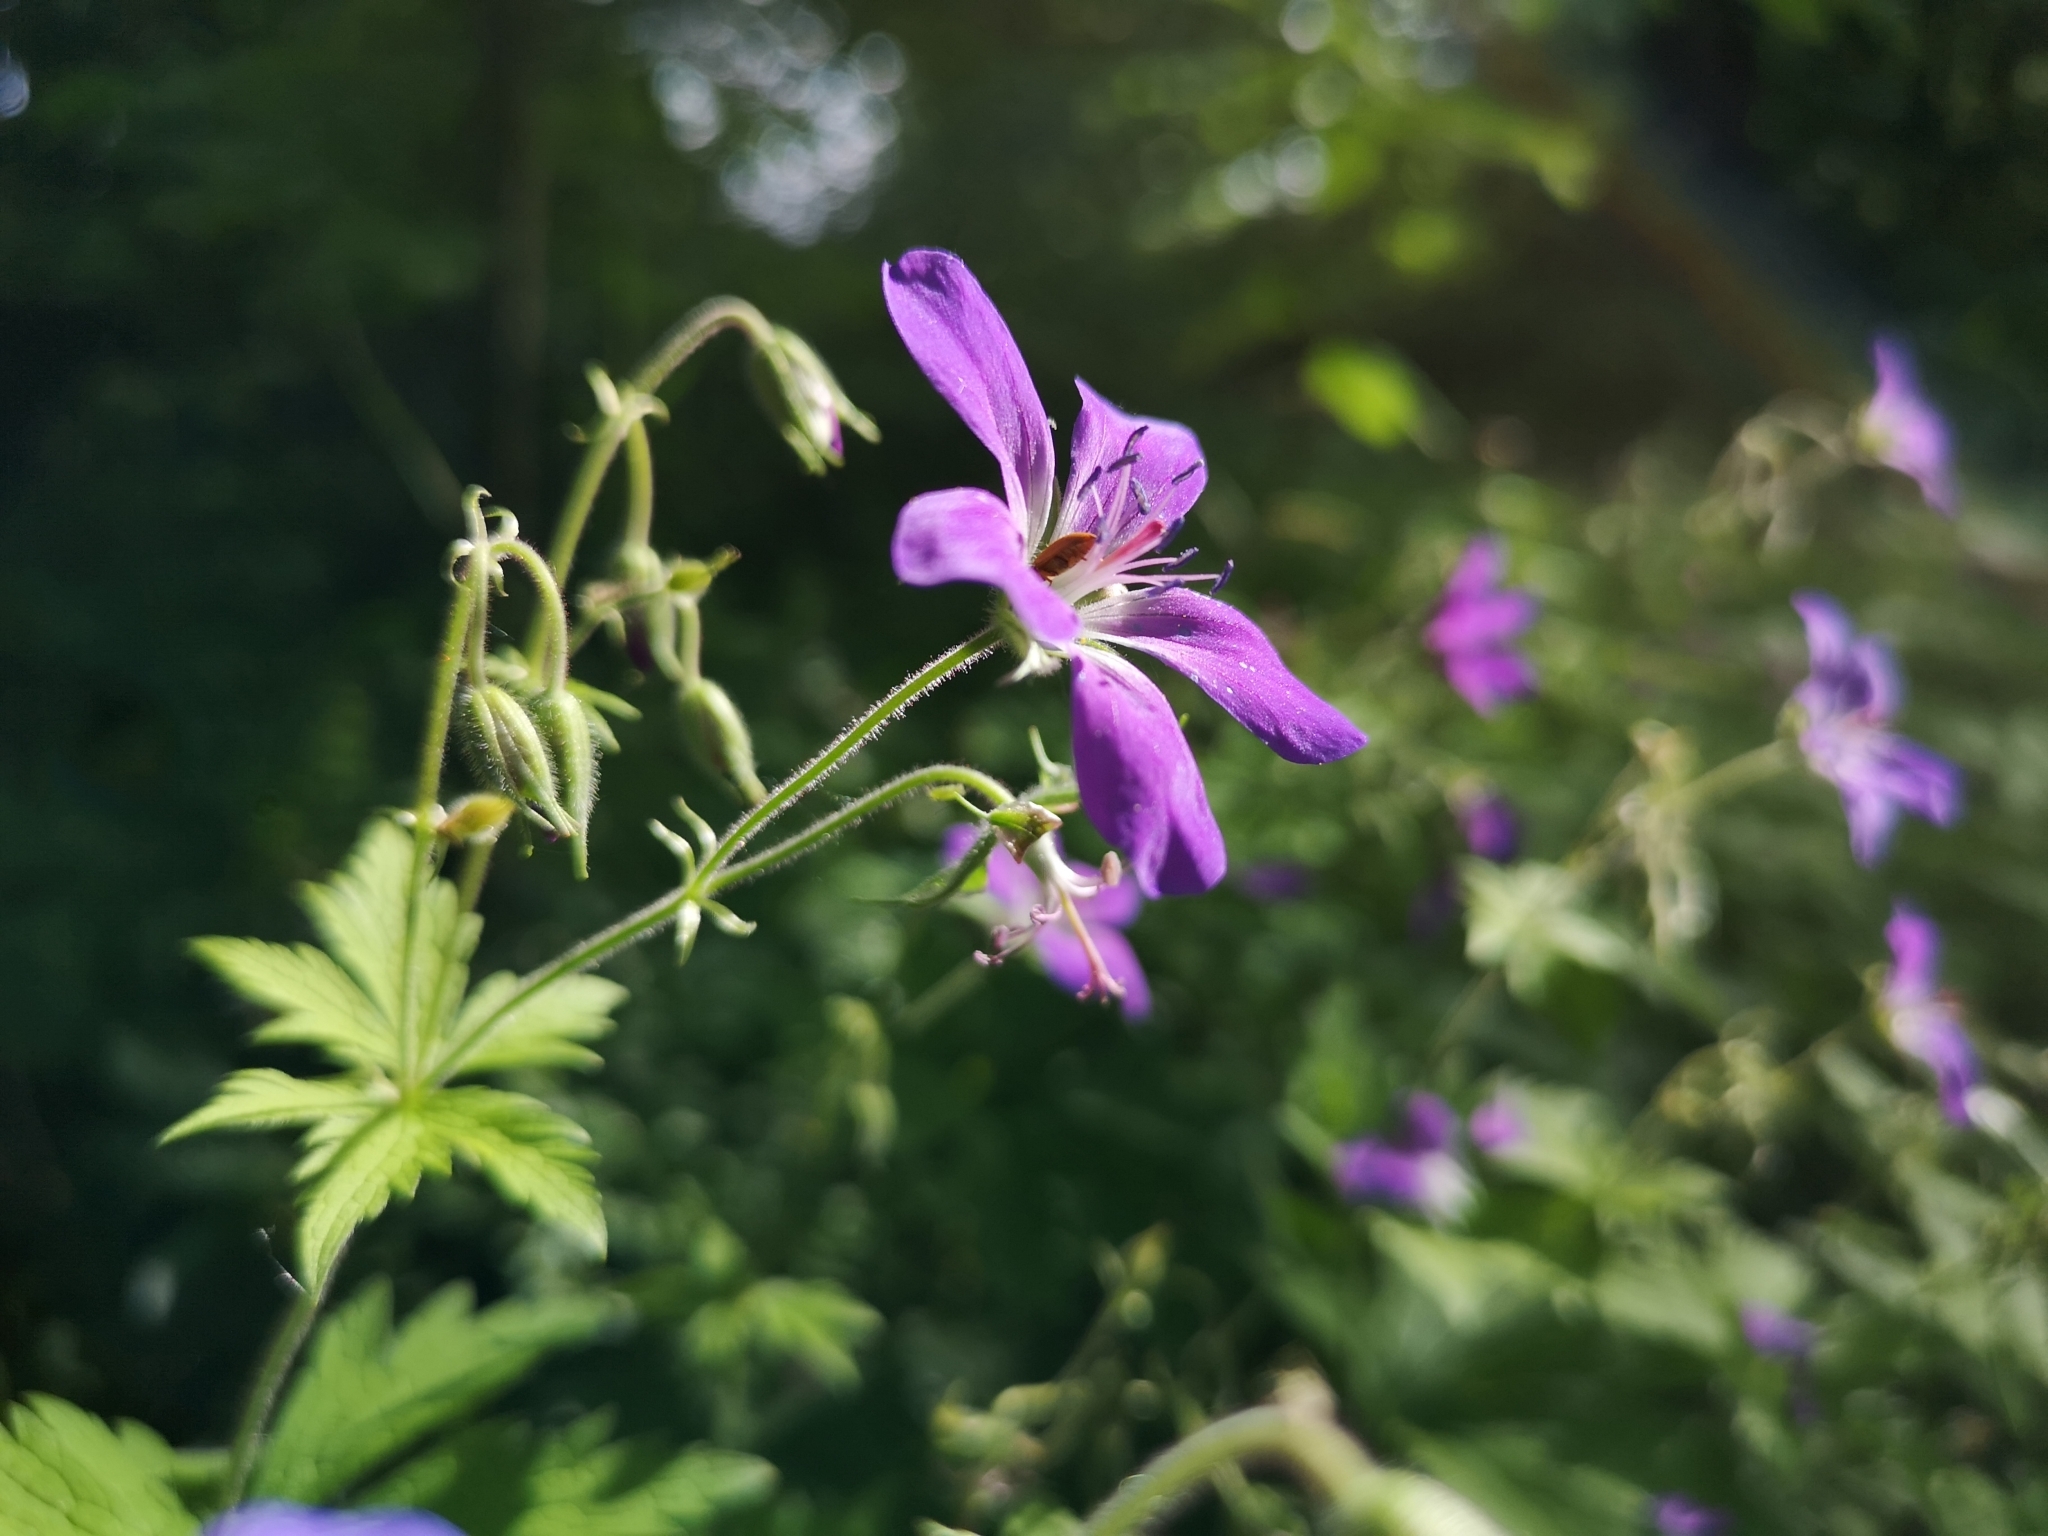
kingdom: Plantae
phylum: Tracheophyta
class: Magnoliopsida
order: Geraniales
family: Geraniaceae
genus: Geranium
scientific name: Geranium sylvaticum
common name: Wood crane's-bill
